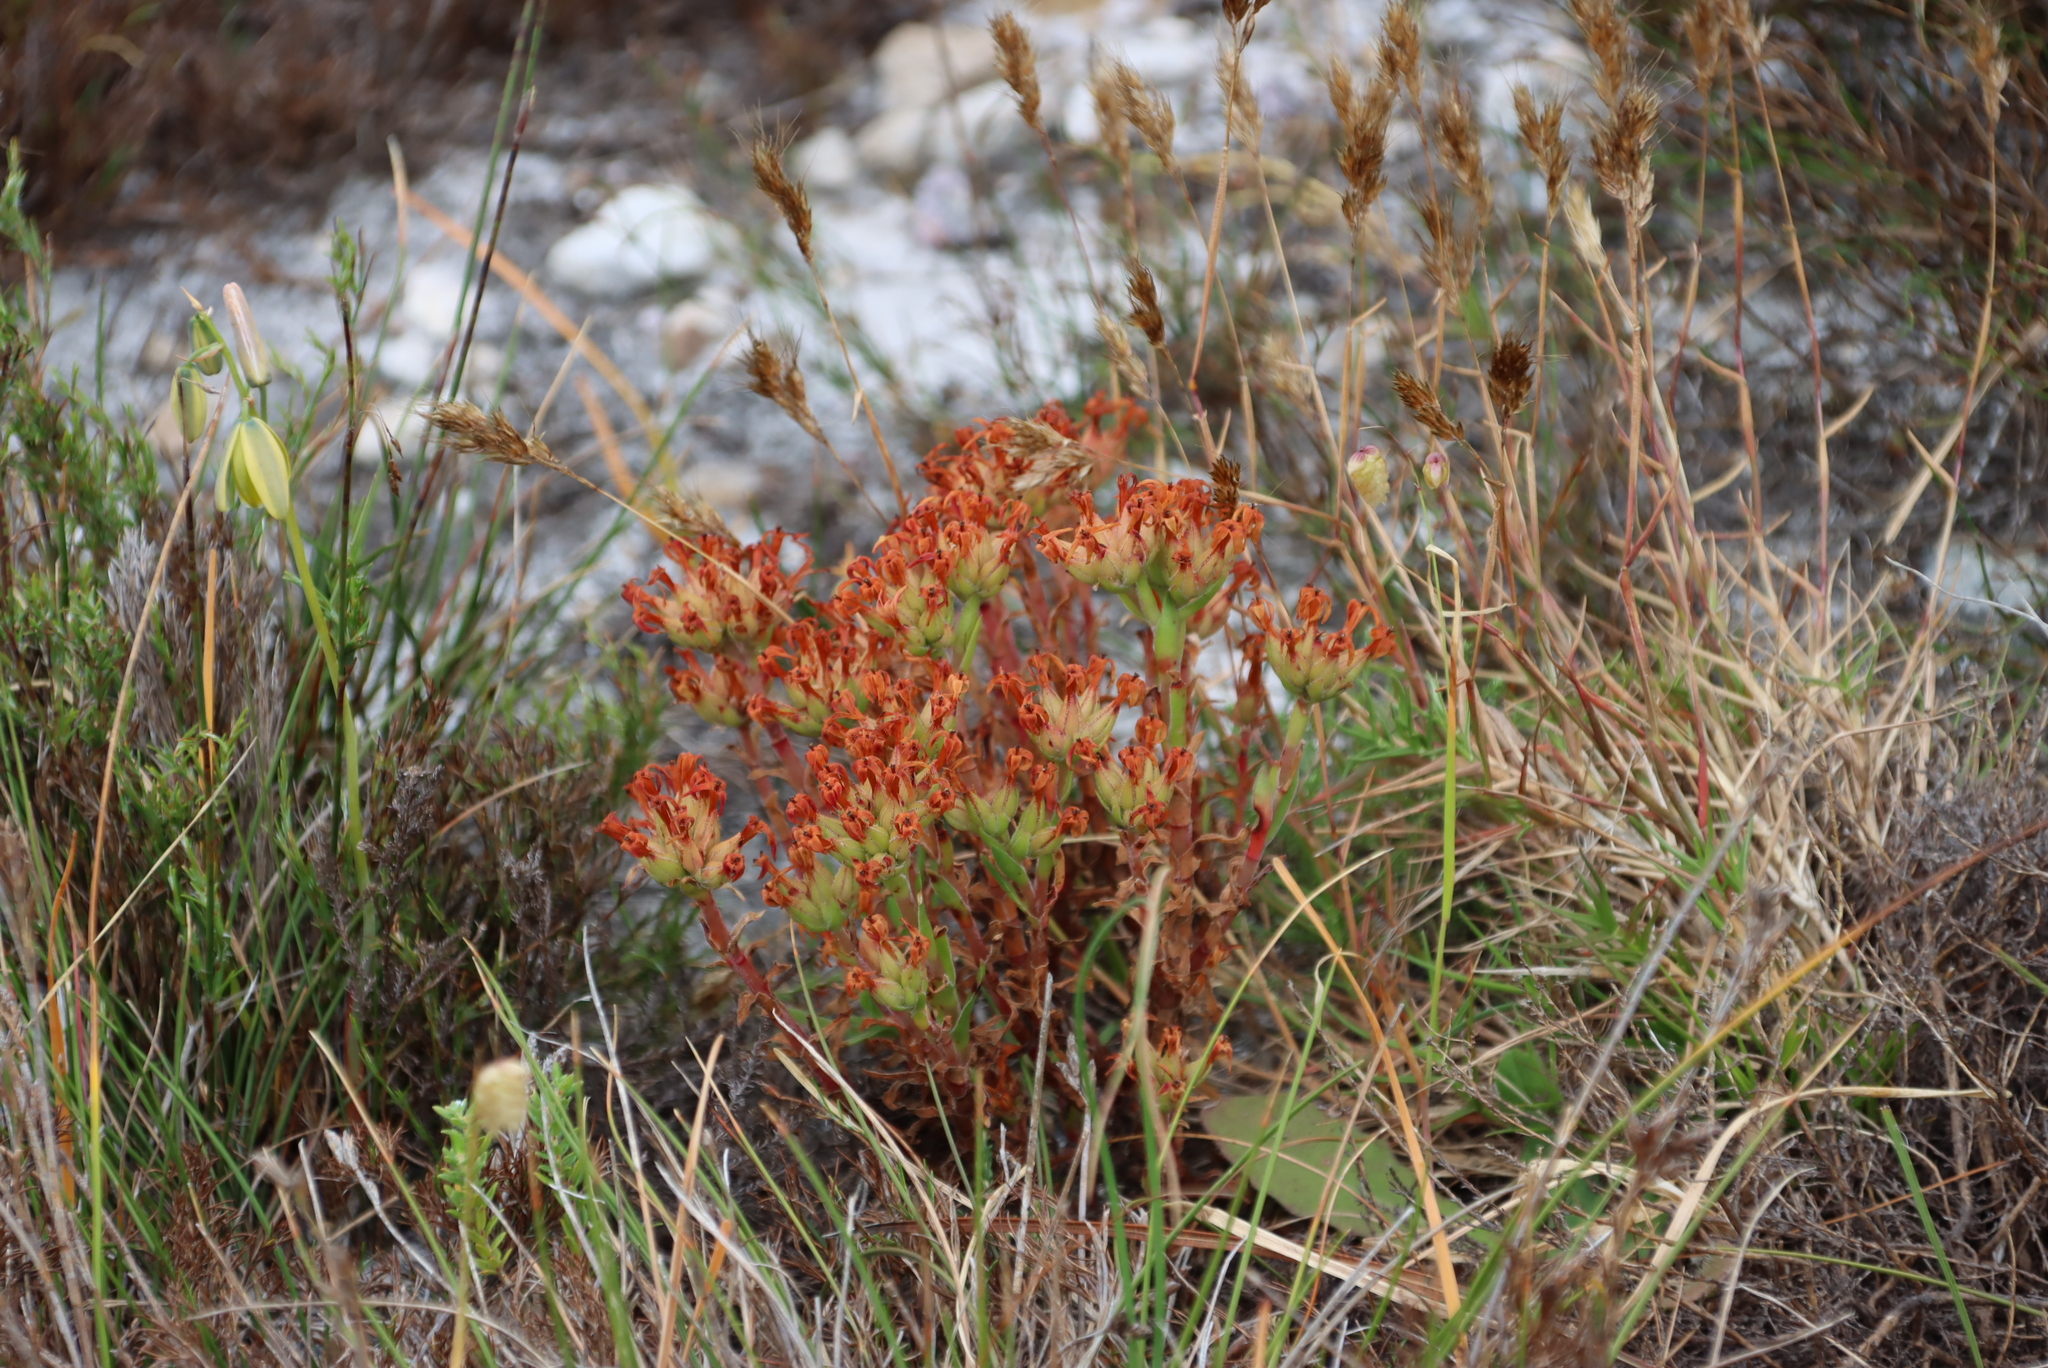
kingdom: Plantae
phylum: Tracheophyta
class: Magnoliopsida
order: Saxifragales
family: Crassulaceae
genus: Crassula
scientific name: Crassula fascicularis
